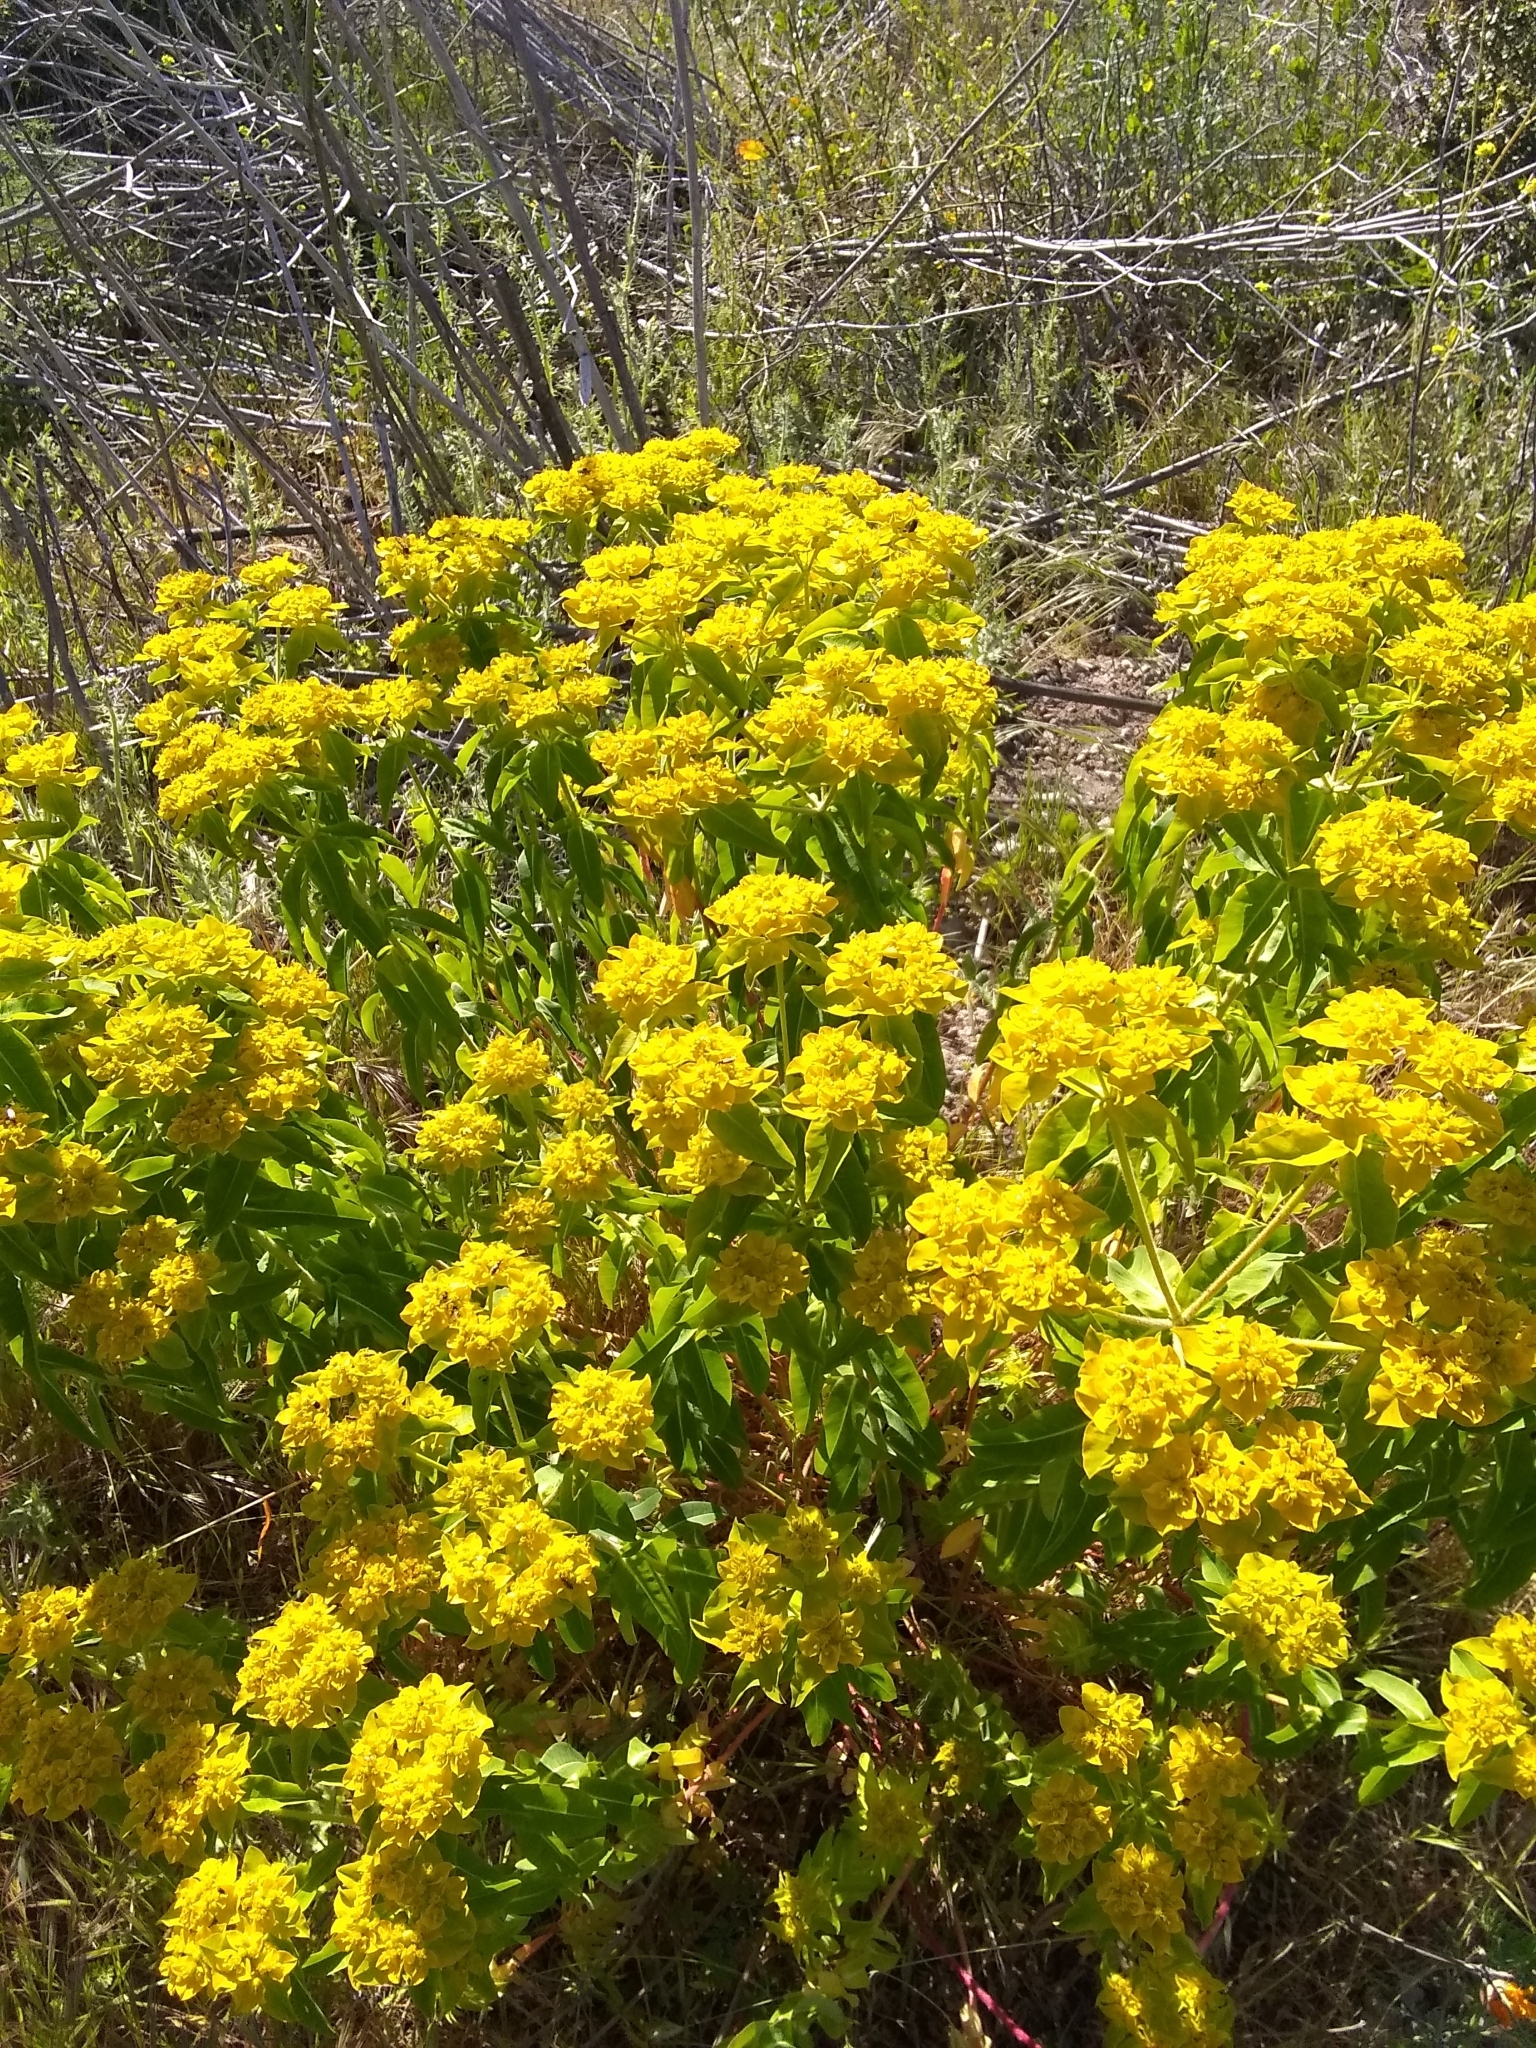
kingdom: Plantae
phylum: Tracheophyta
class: Magnoliopsida
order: Malpighiales
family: Euphorbiaceae
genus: Euphorbia
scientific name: Euphorbia oblongata
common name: Balkan spurge
